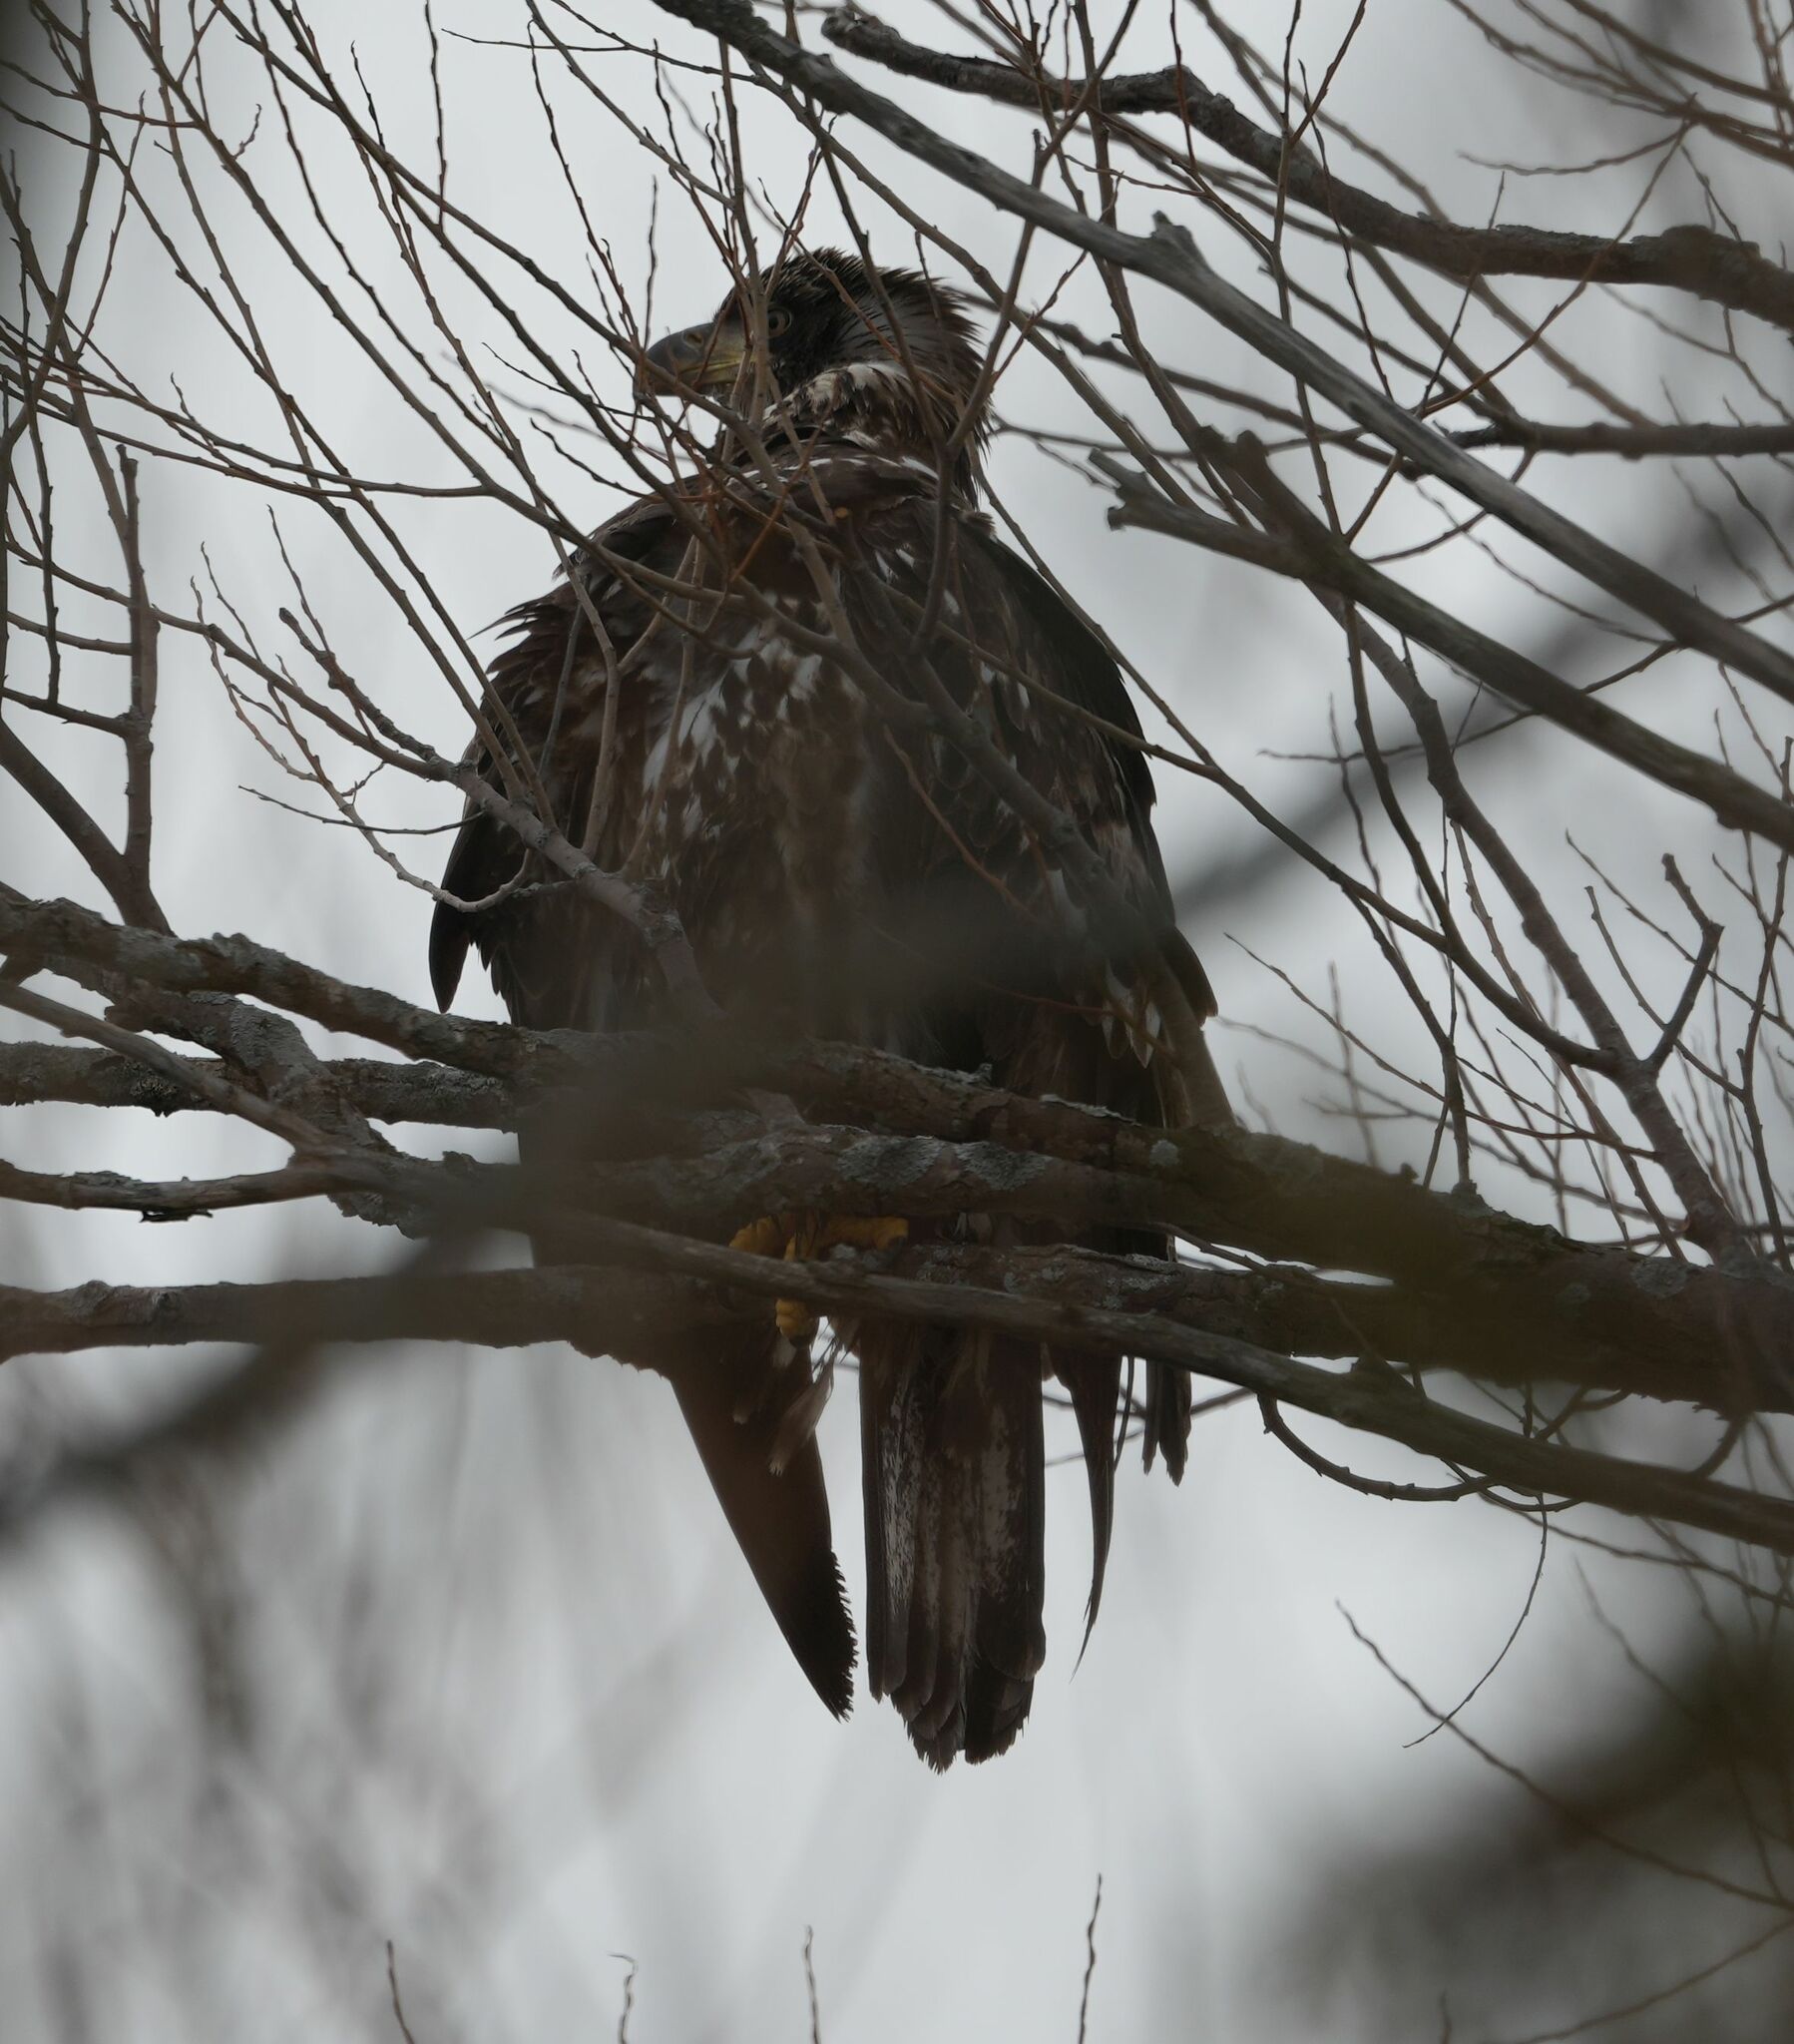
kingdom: Animalia
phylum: Chordata
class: Aves
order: Accipitriformes
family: Accipitridae
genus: Haliaeetus
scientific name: Haliaeetus leucocephalus
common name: Bald eagle
